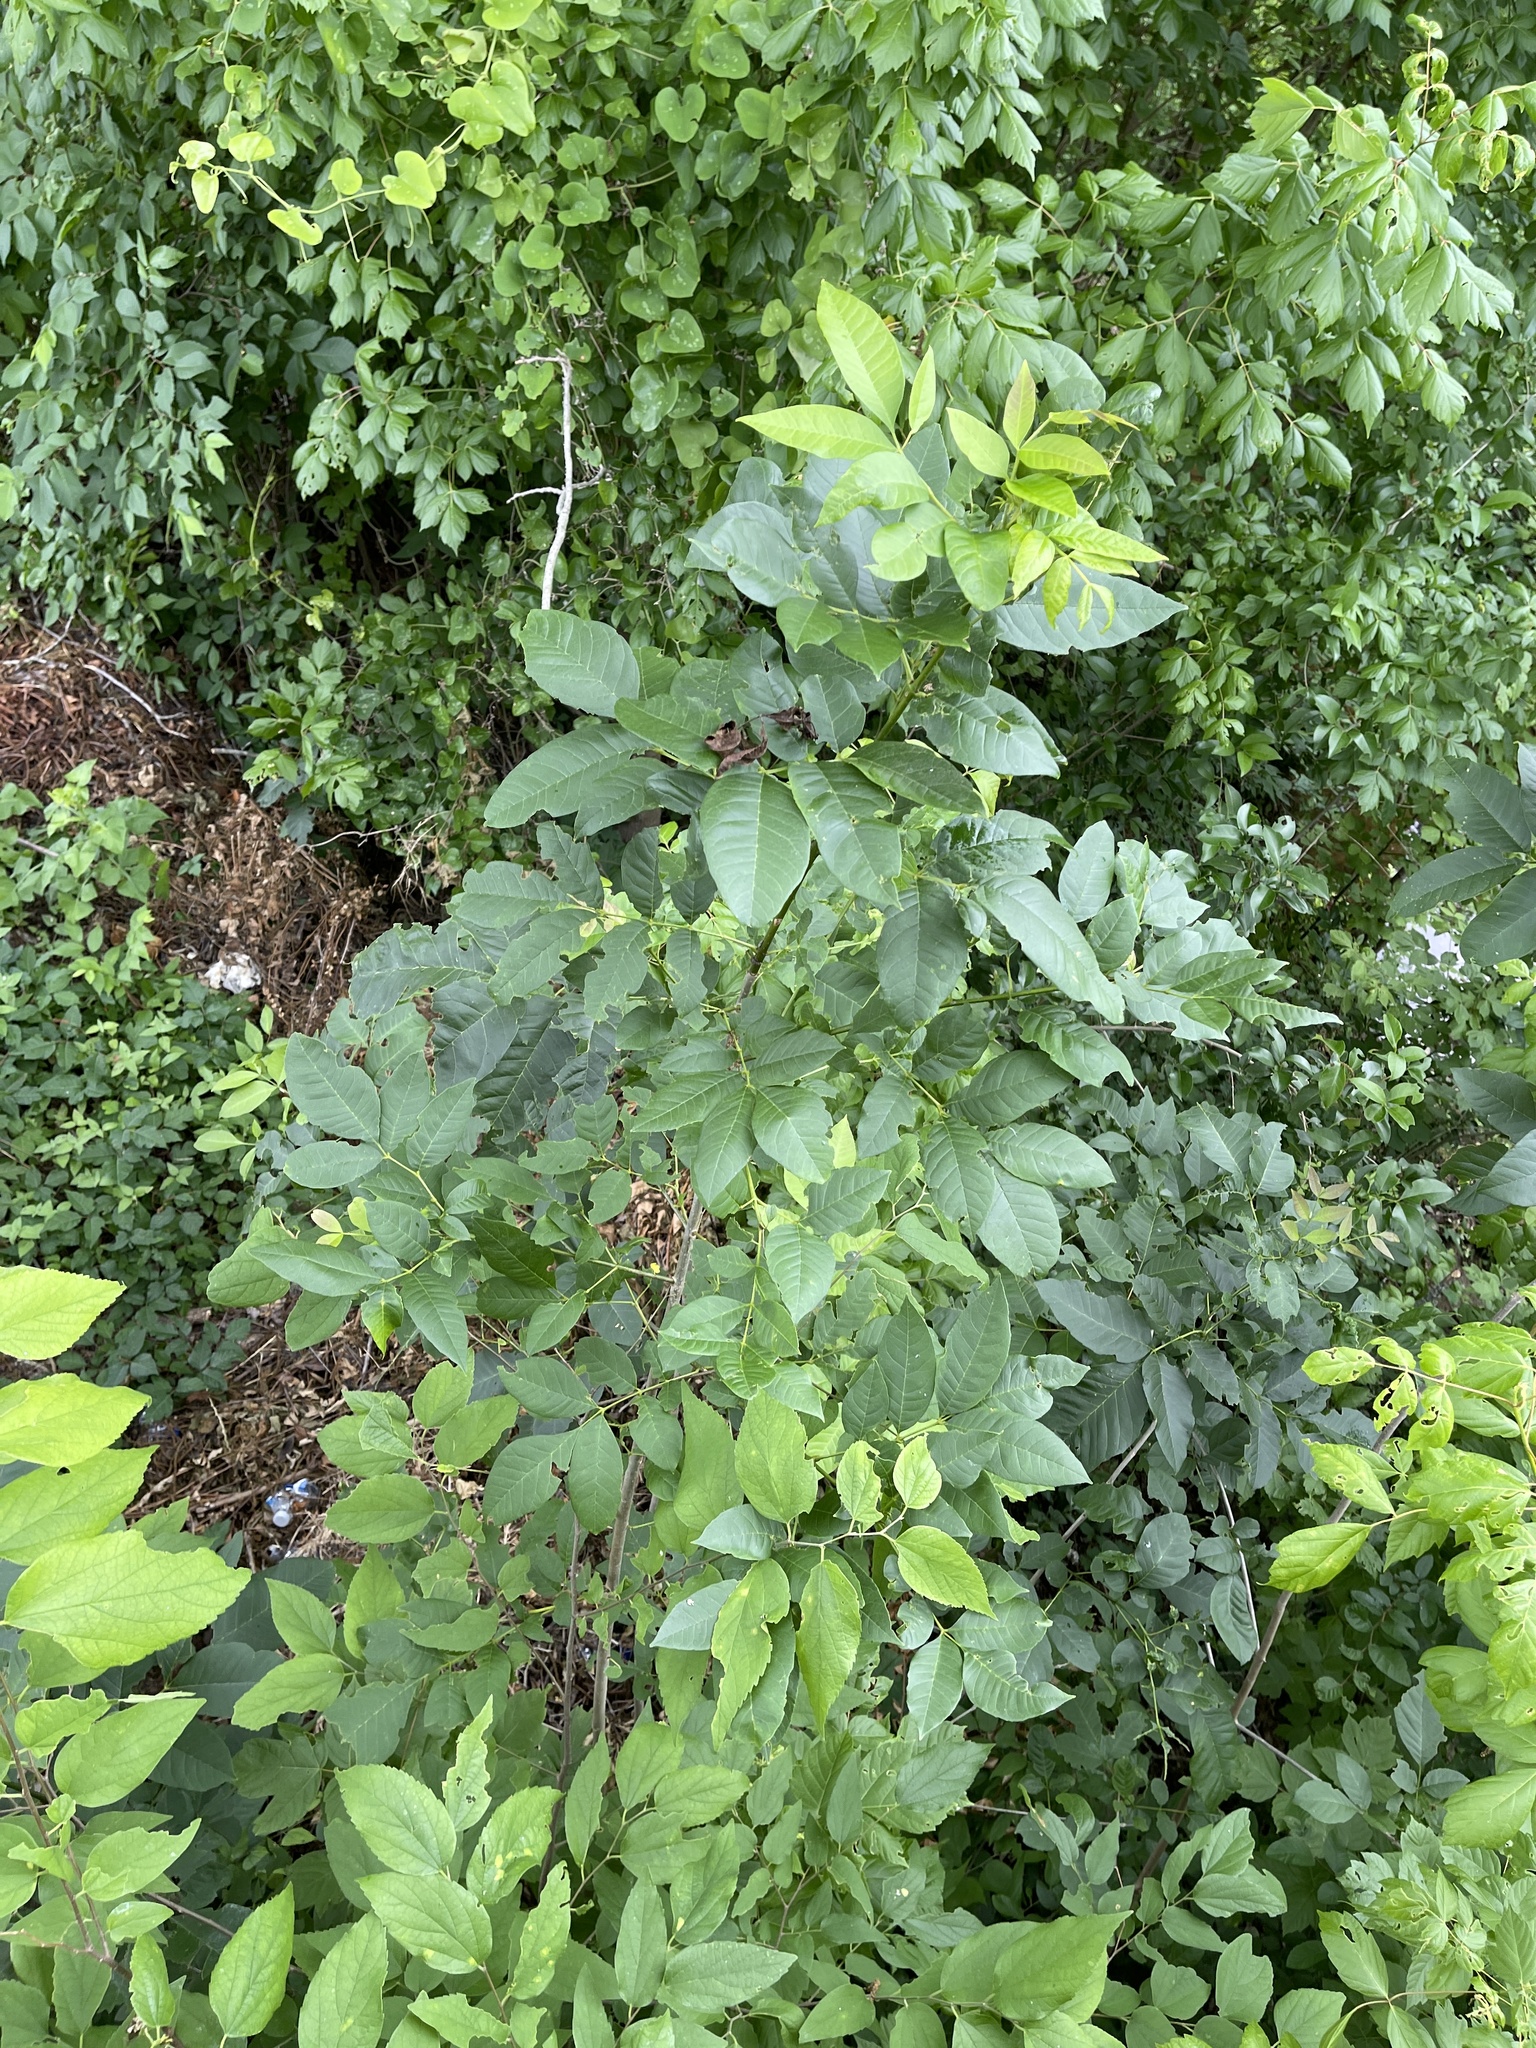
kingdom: Plantae
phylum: Tracheophyta
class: Magnoliopsida
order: Lamiales
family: Oleaceae
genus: Fraxinus
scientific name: Fraxinus pennsylvanica
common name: Green ash
